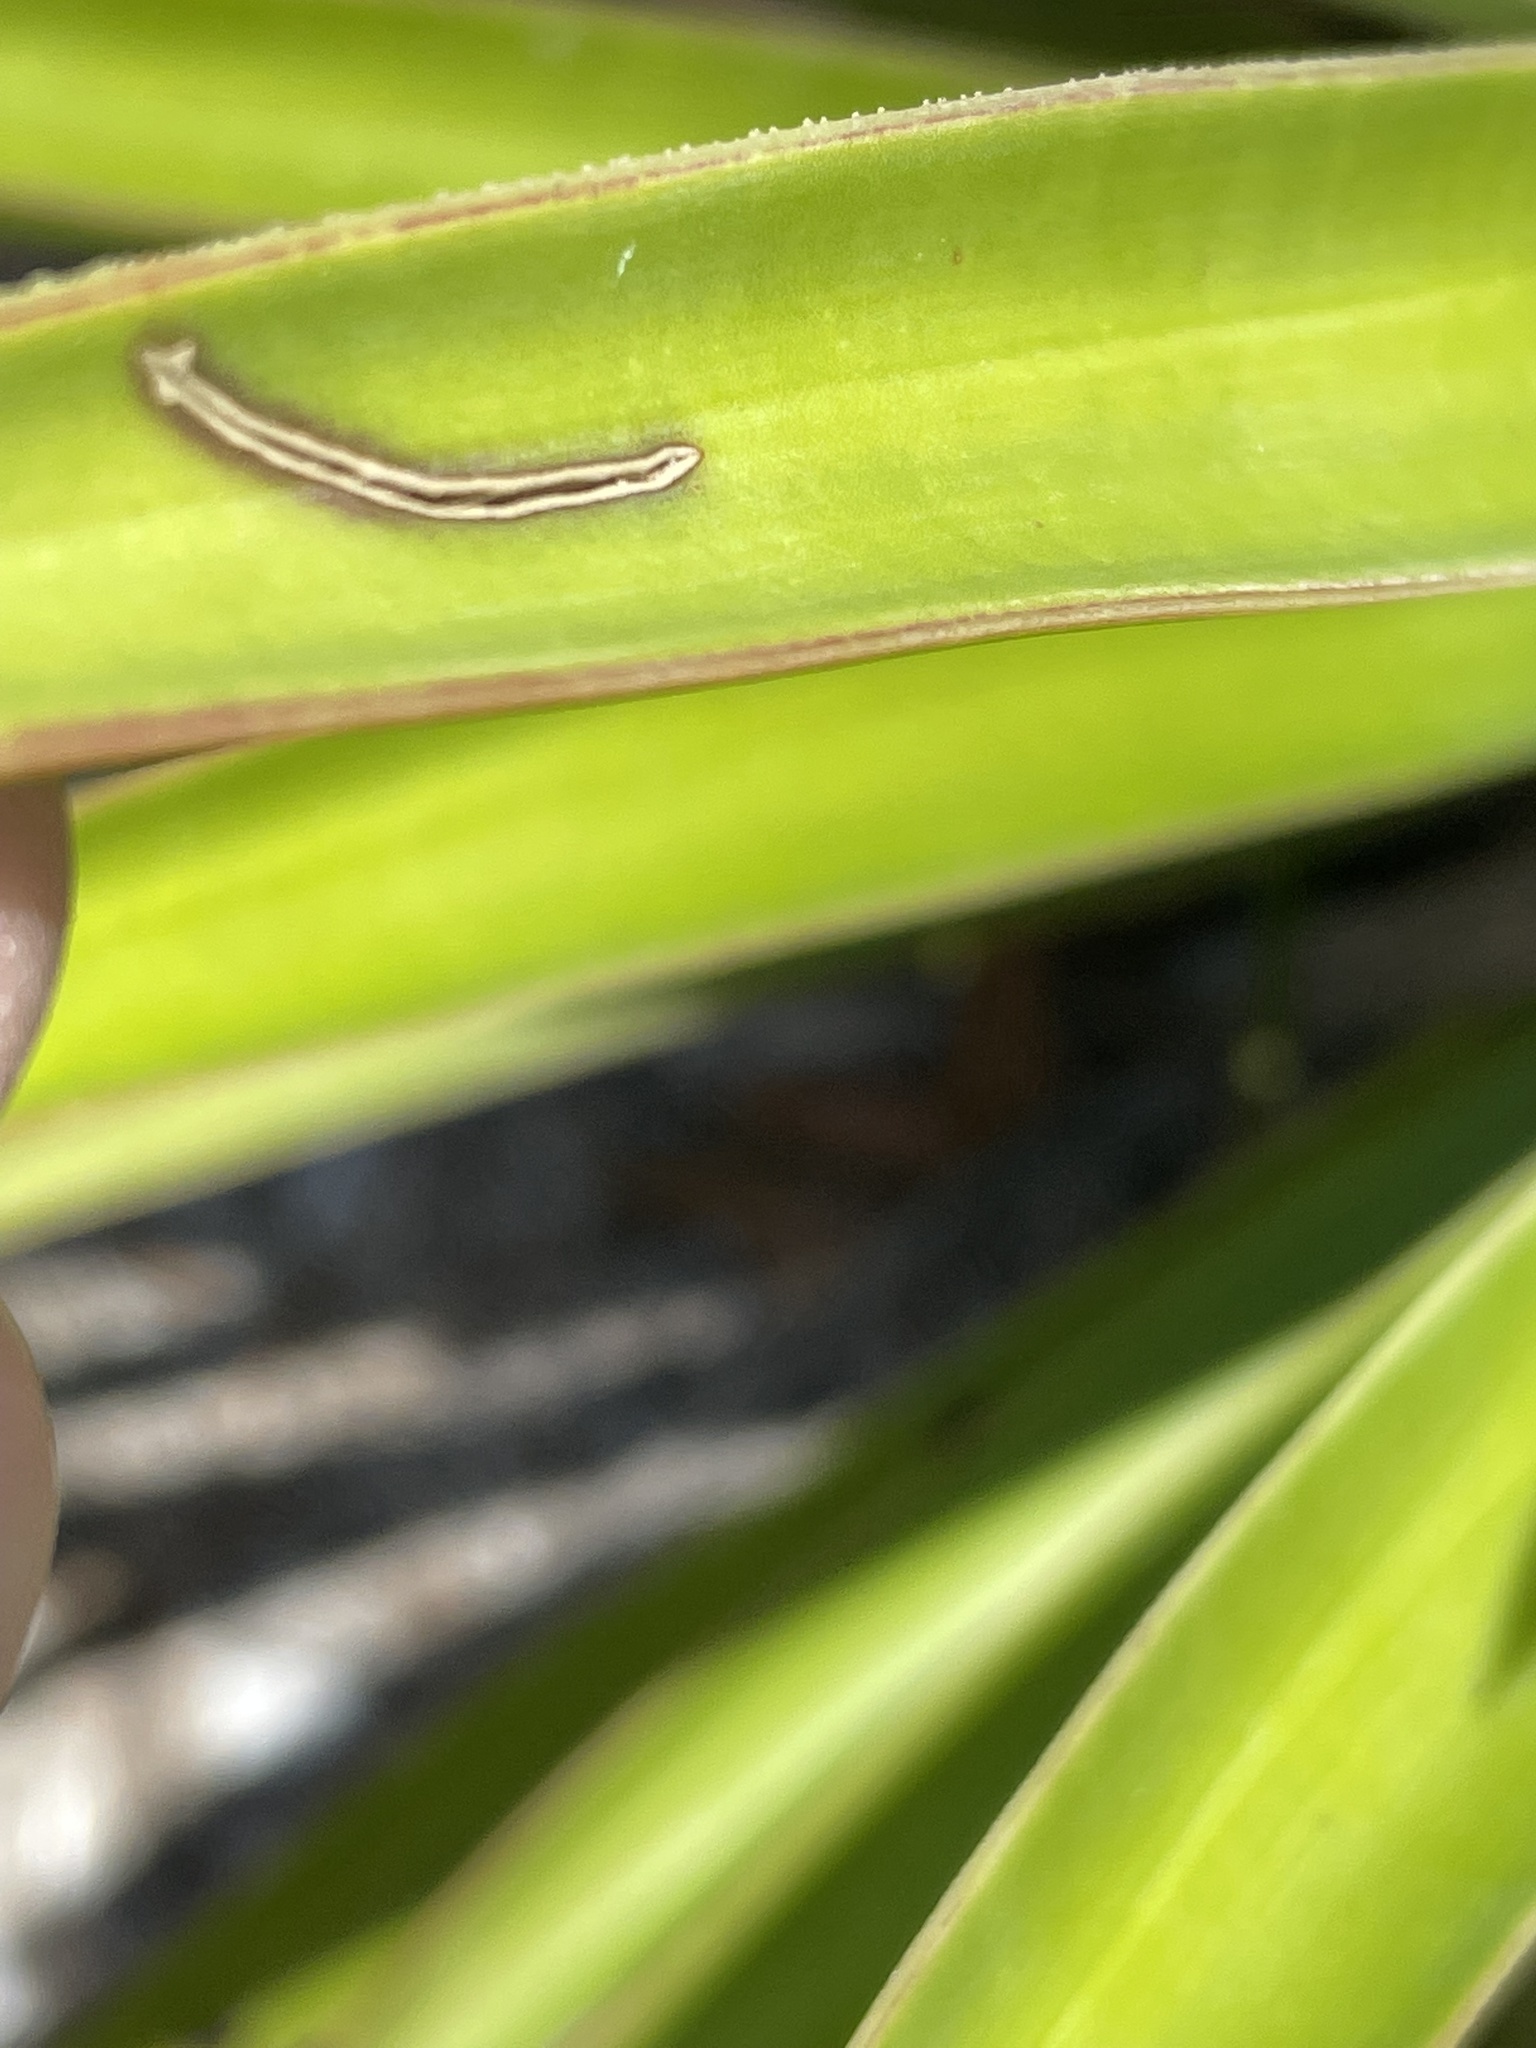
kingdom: Plantae
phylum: Tracheophyta
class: Liliopsida
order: Asparagales
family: Asparagaceae
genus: Yucca
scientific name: Yucca aloifolia
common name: Aloe yucca
